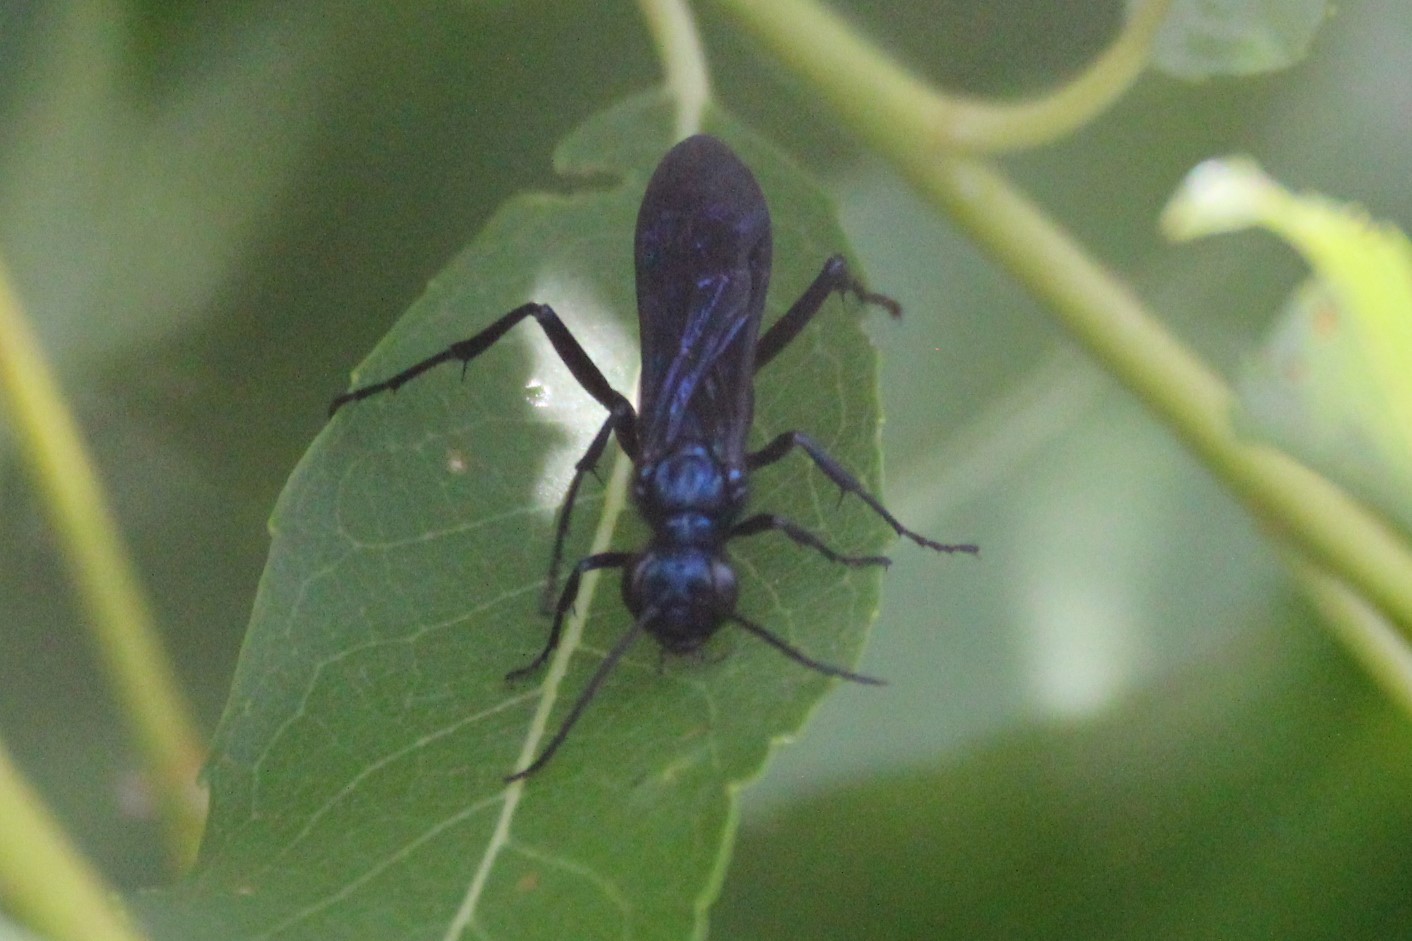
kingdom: Animalia
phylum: Arthropoda
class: Insecta
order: Hymenoptera
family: Sphecidae
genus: Chalybion
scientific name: Chalybion californicum
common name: Mud dauber
